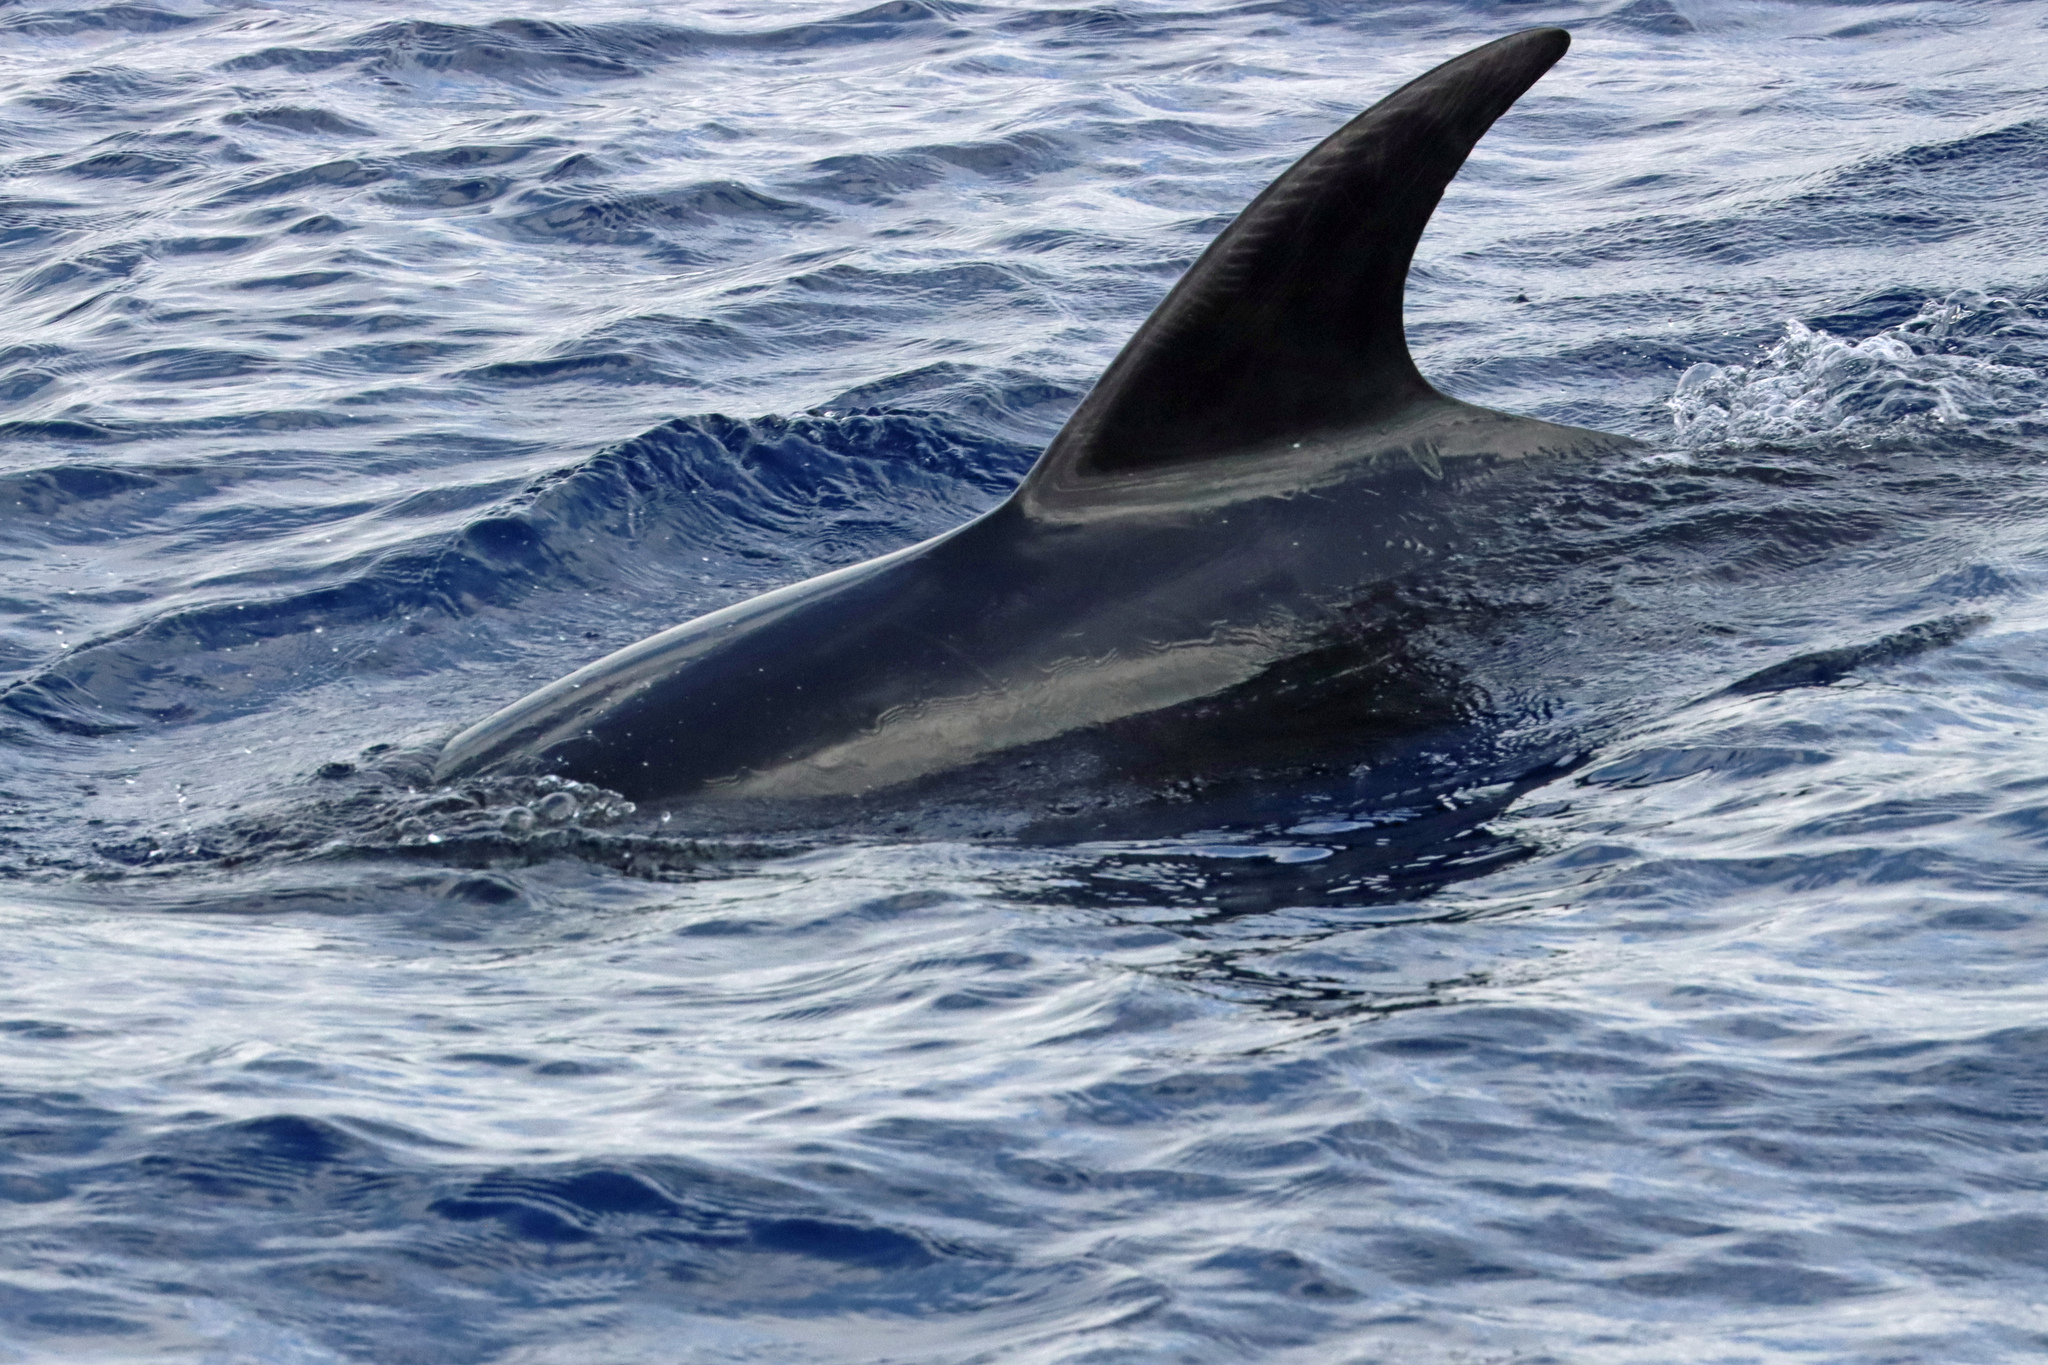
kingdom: Animalia
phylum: Chordata
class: Mammalia
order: Cetacea
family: Delphinidae
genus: Tursiops
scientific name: Tursiops truncatus
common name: Bottlenose dolphin
